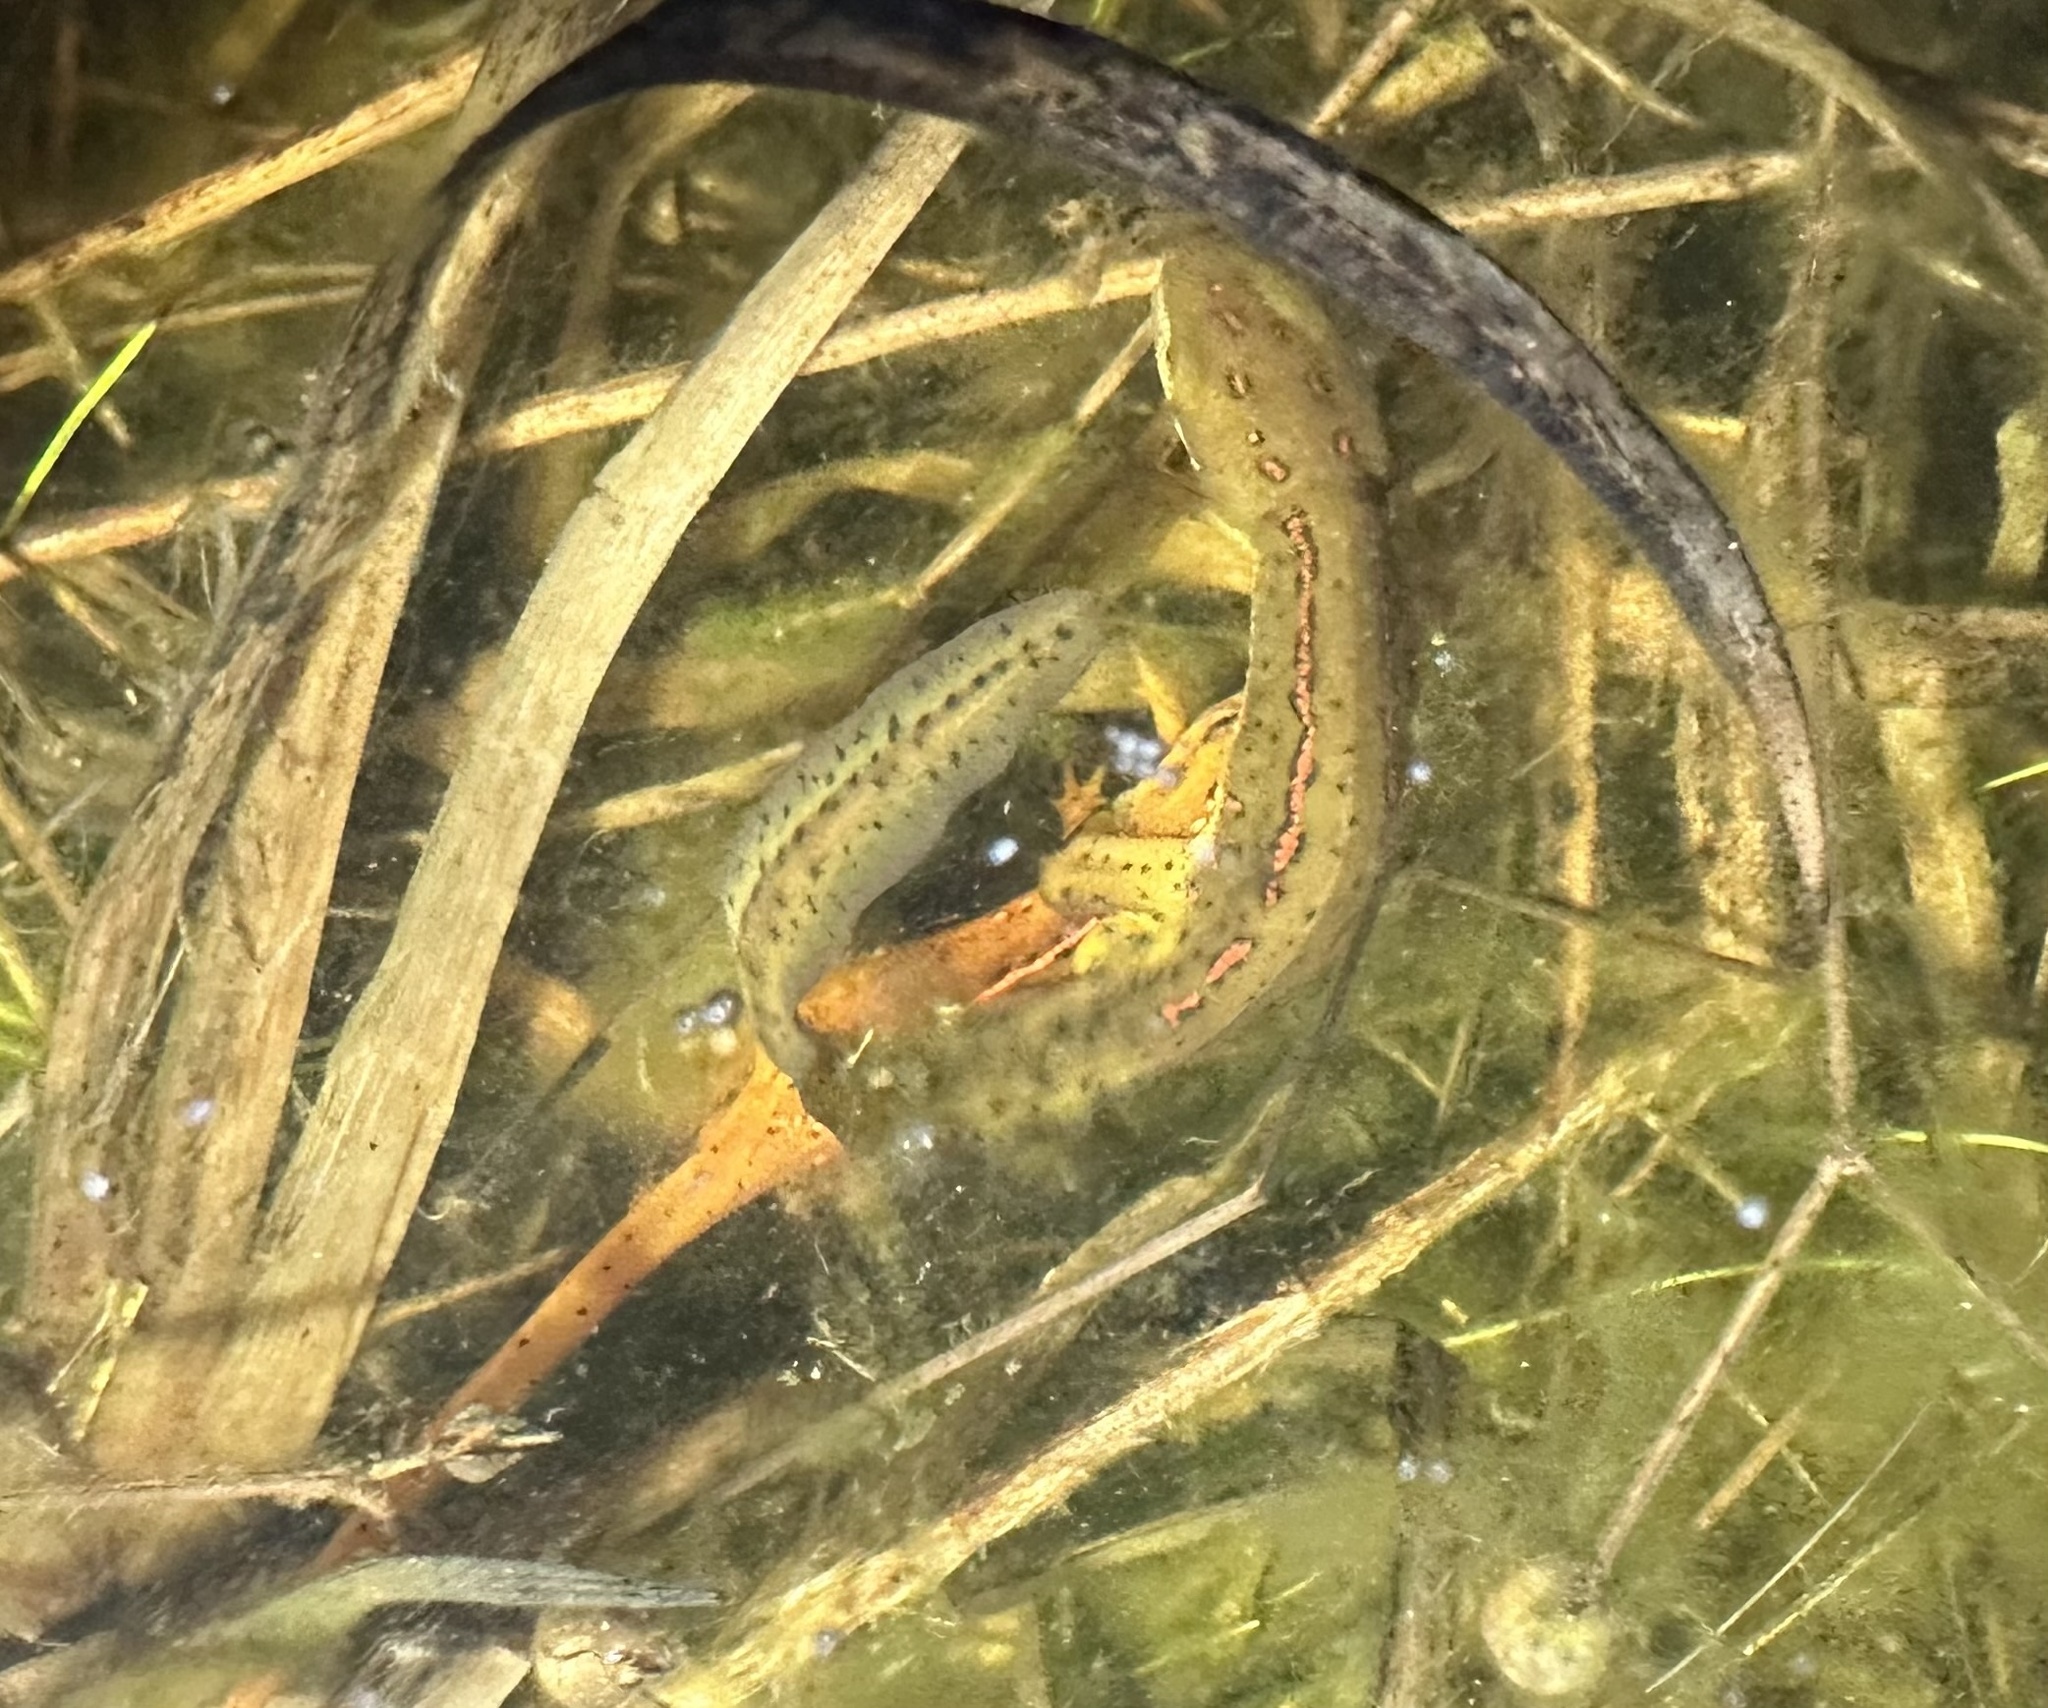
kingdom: Animalia
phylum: Chordata
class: Amphibia
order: Caudata
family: Salamandridae
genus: Notophthalmus
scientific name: Notophthalmus viridescens
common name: Eastern newt
